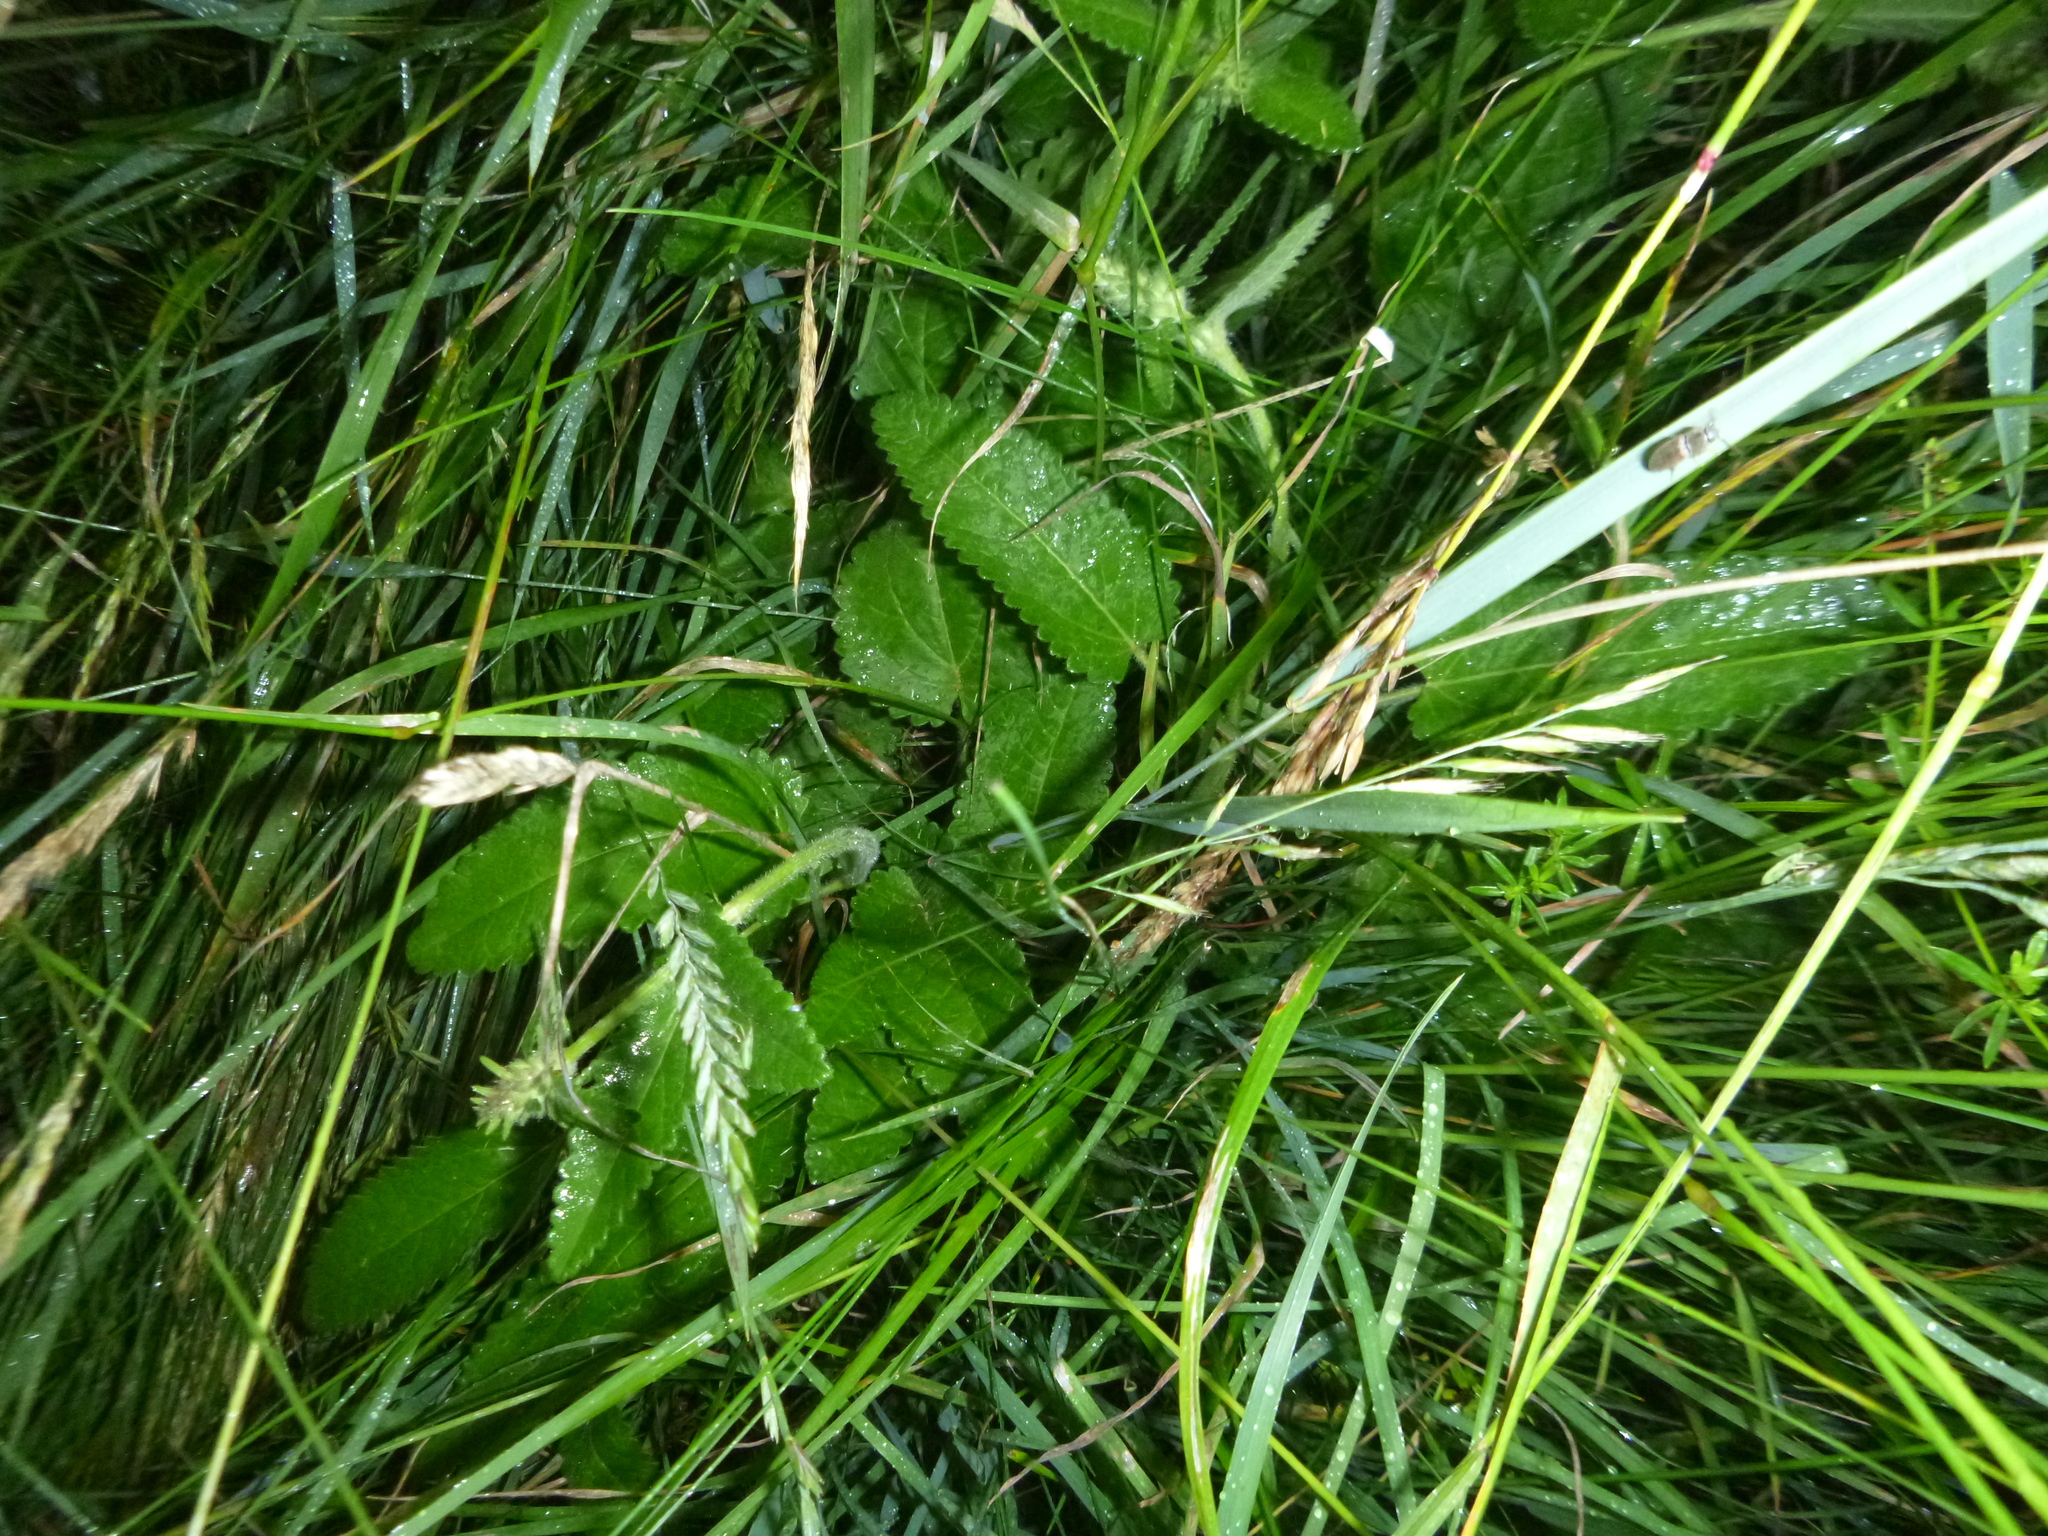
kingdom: Plantae
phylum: Tracheophyta
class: Magnoliopsida
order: Lamiales
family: Lamiaceae
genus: Betonica
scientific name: Betonica officinalis
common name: Bishop's-wort
